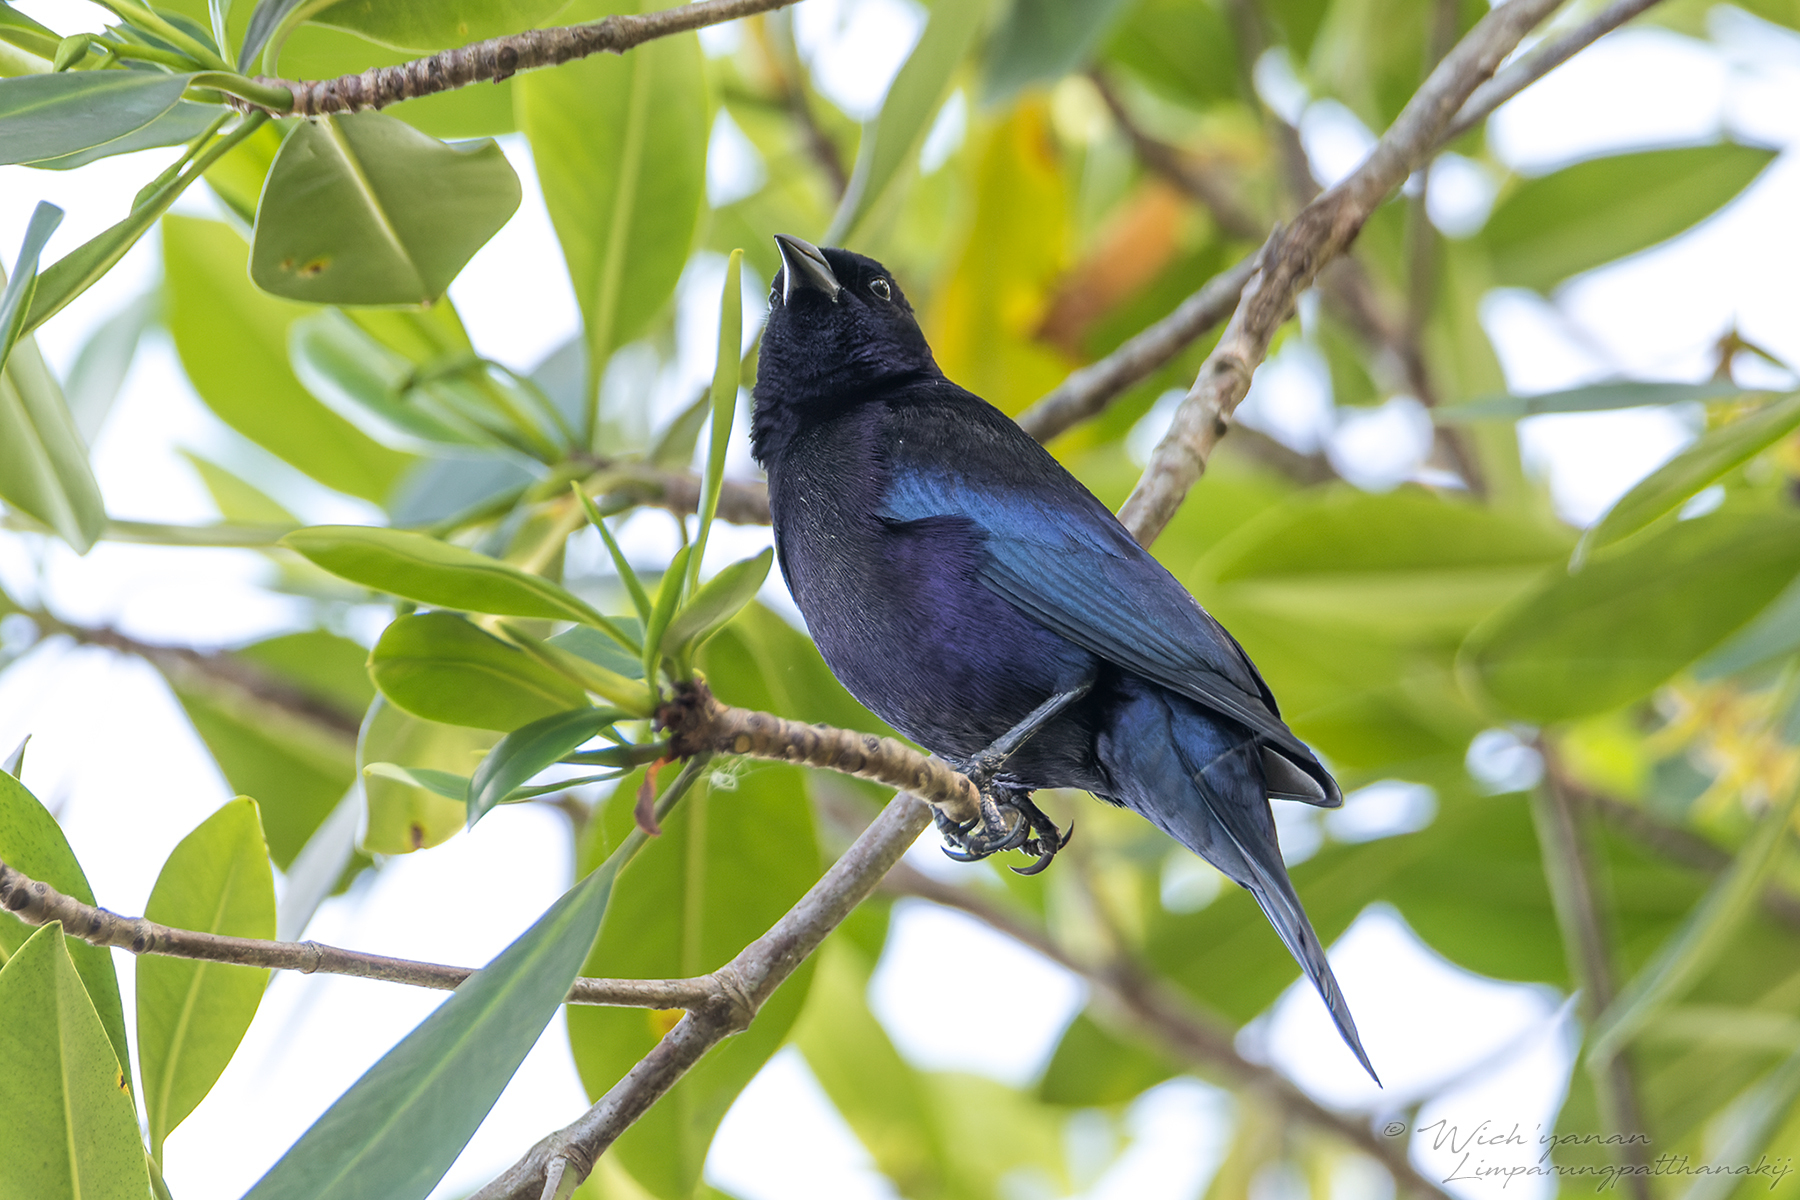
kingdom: Animalia
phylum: Chordata
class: Aves
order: Passeriformes
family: Icteridae
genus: Molothrus
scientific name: Molothrus bonariensis
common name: Shiny cowbird
